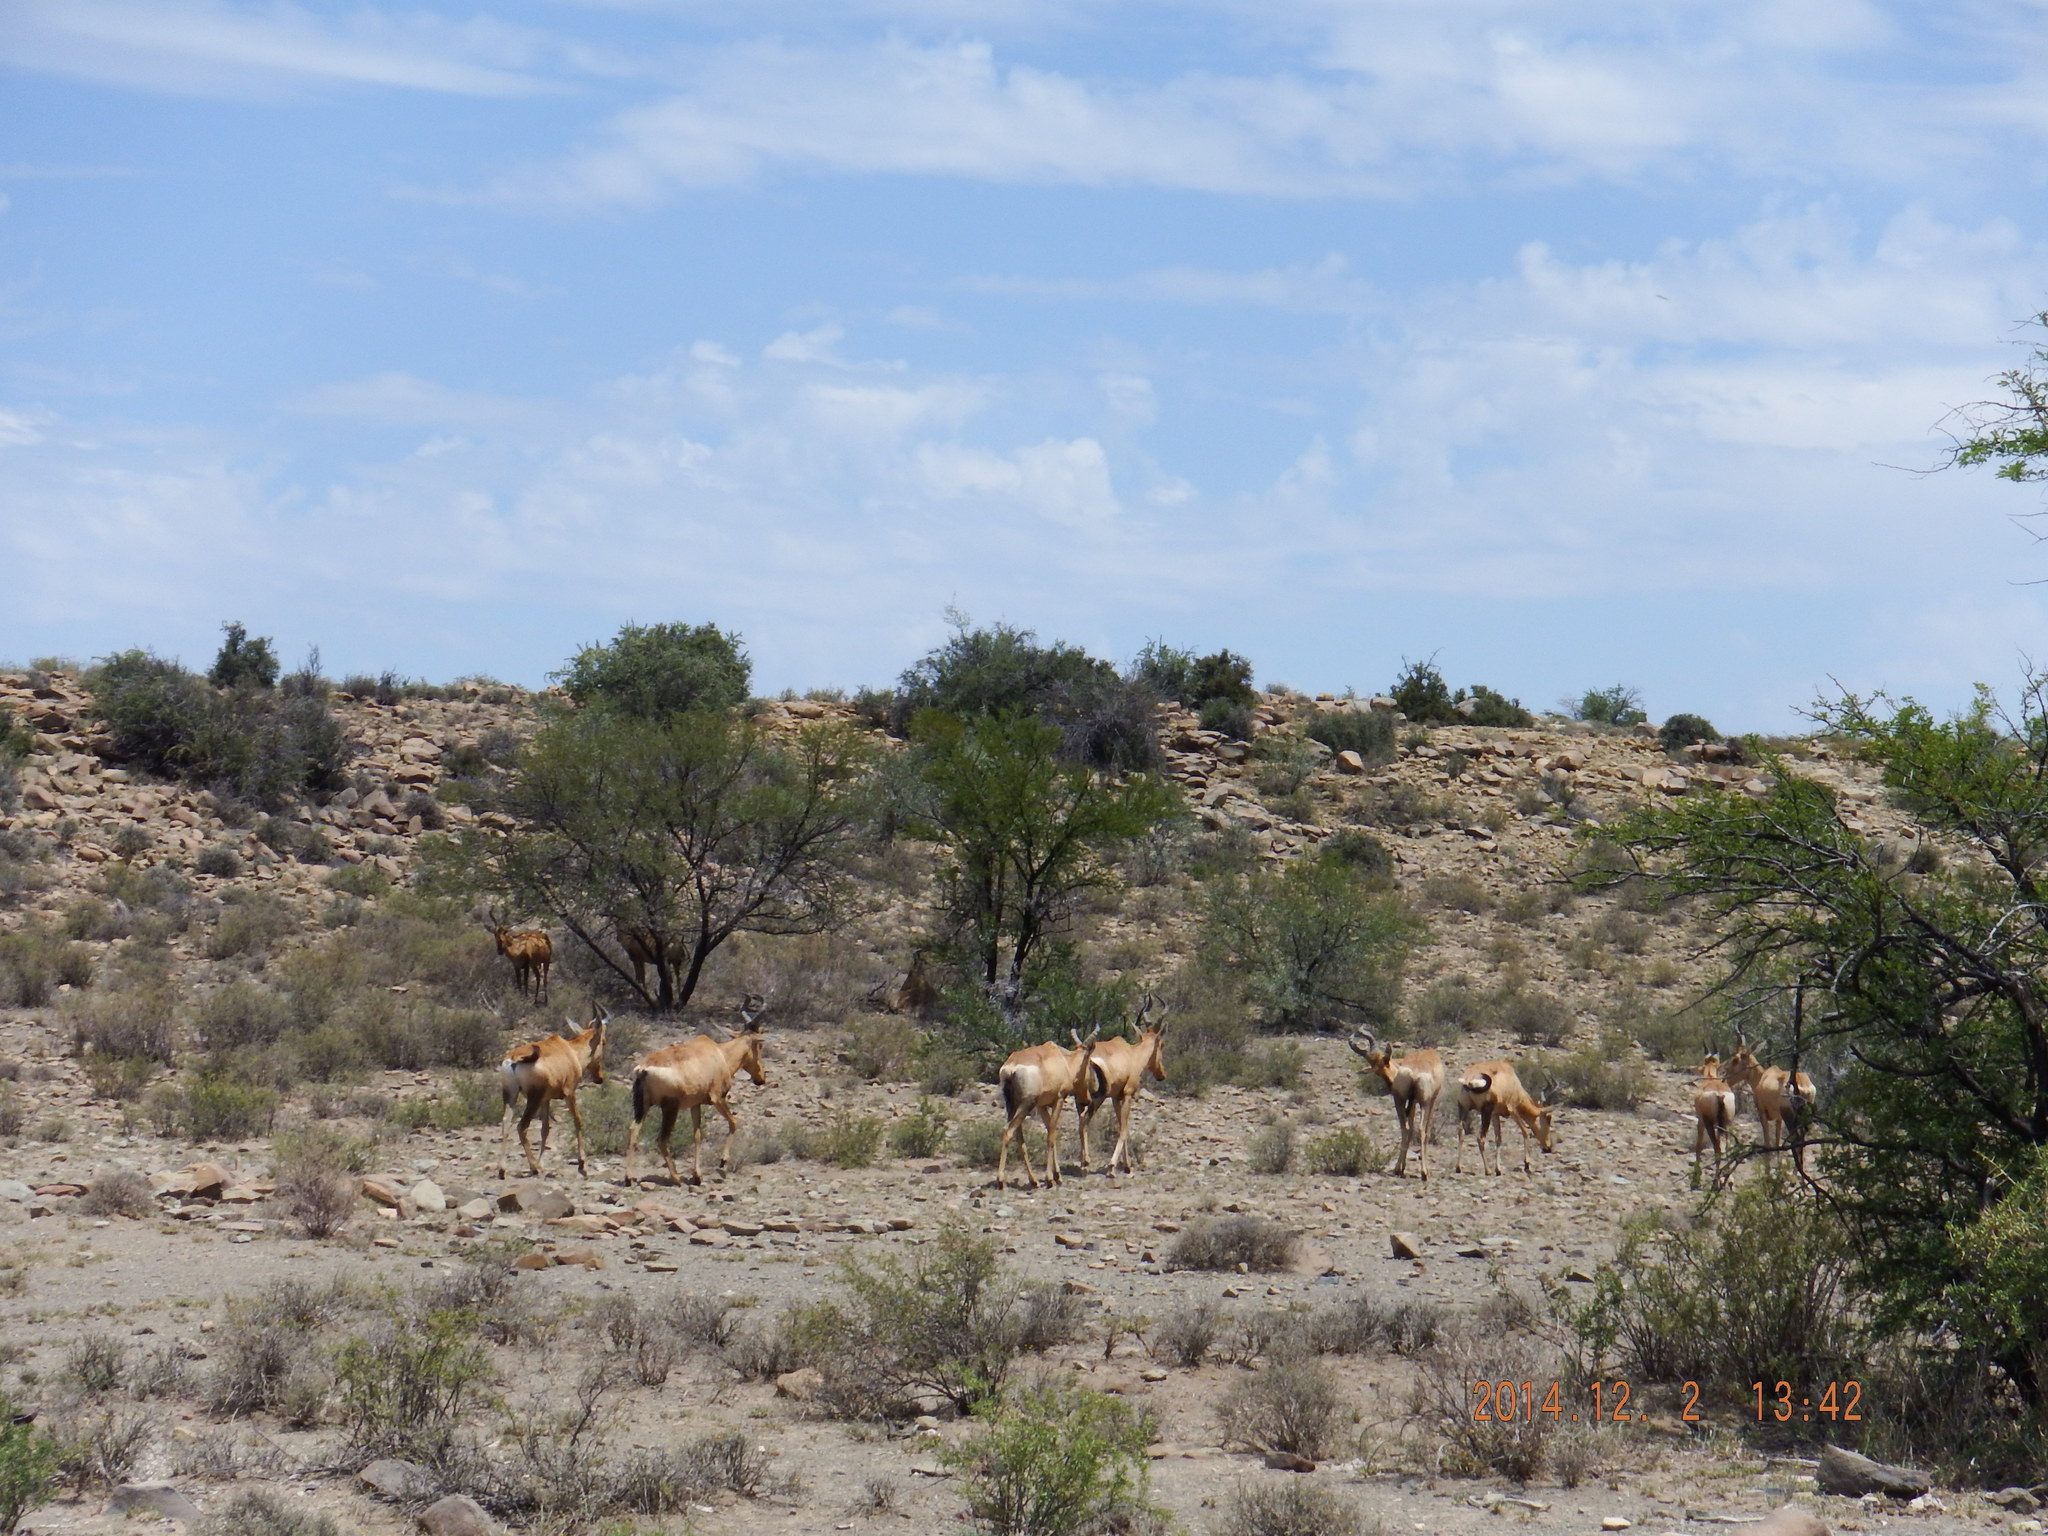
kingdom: Animalia
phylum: Chordata
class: Mammalia
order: Artiodactyla
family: Bovidae
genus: Alcelaphus
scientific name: Alcelaphus caama
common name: Red hartebeest
